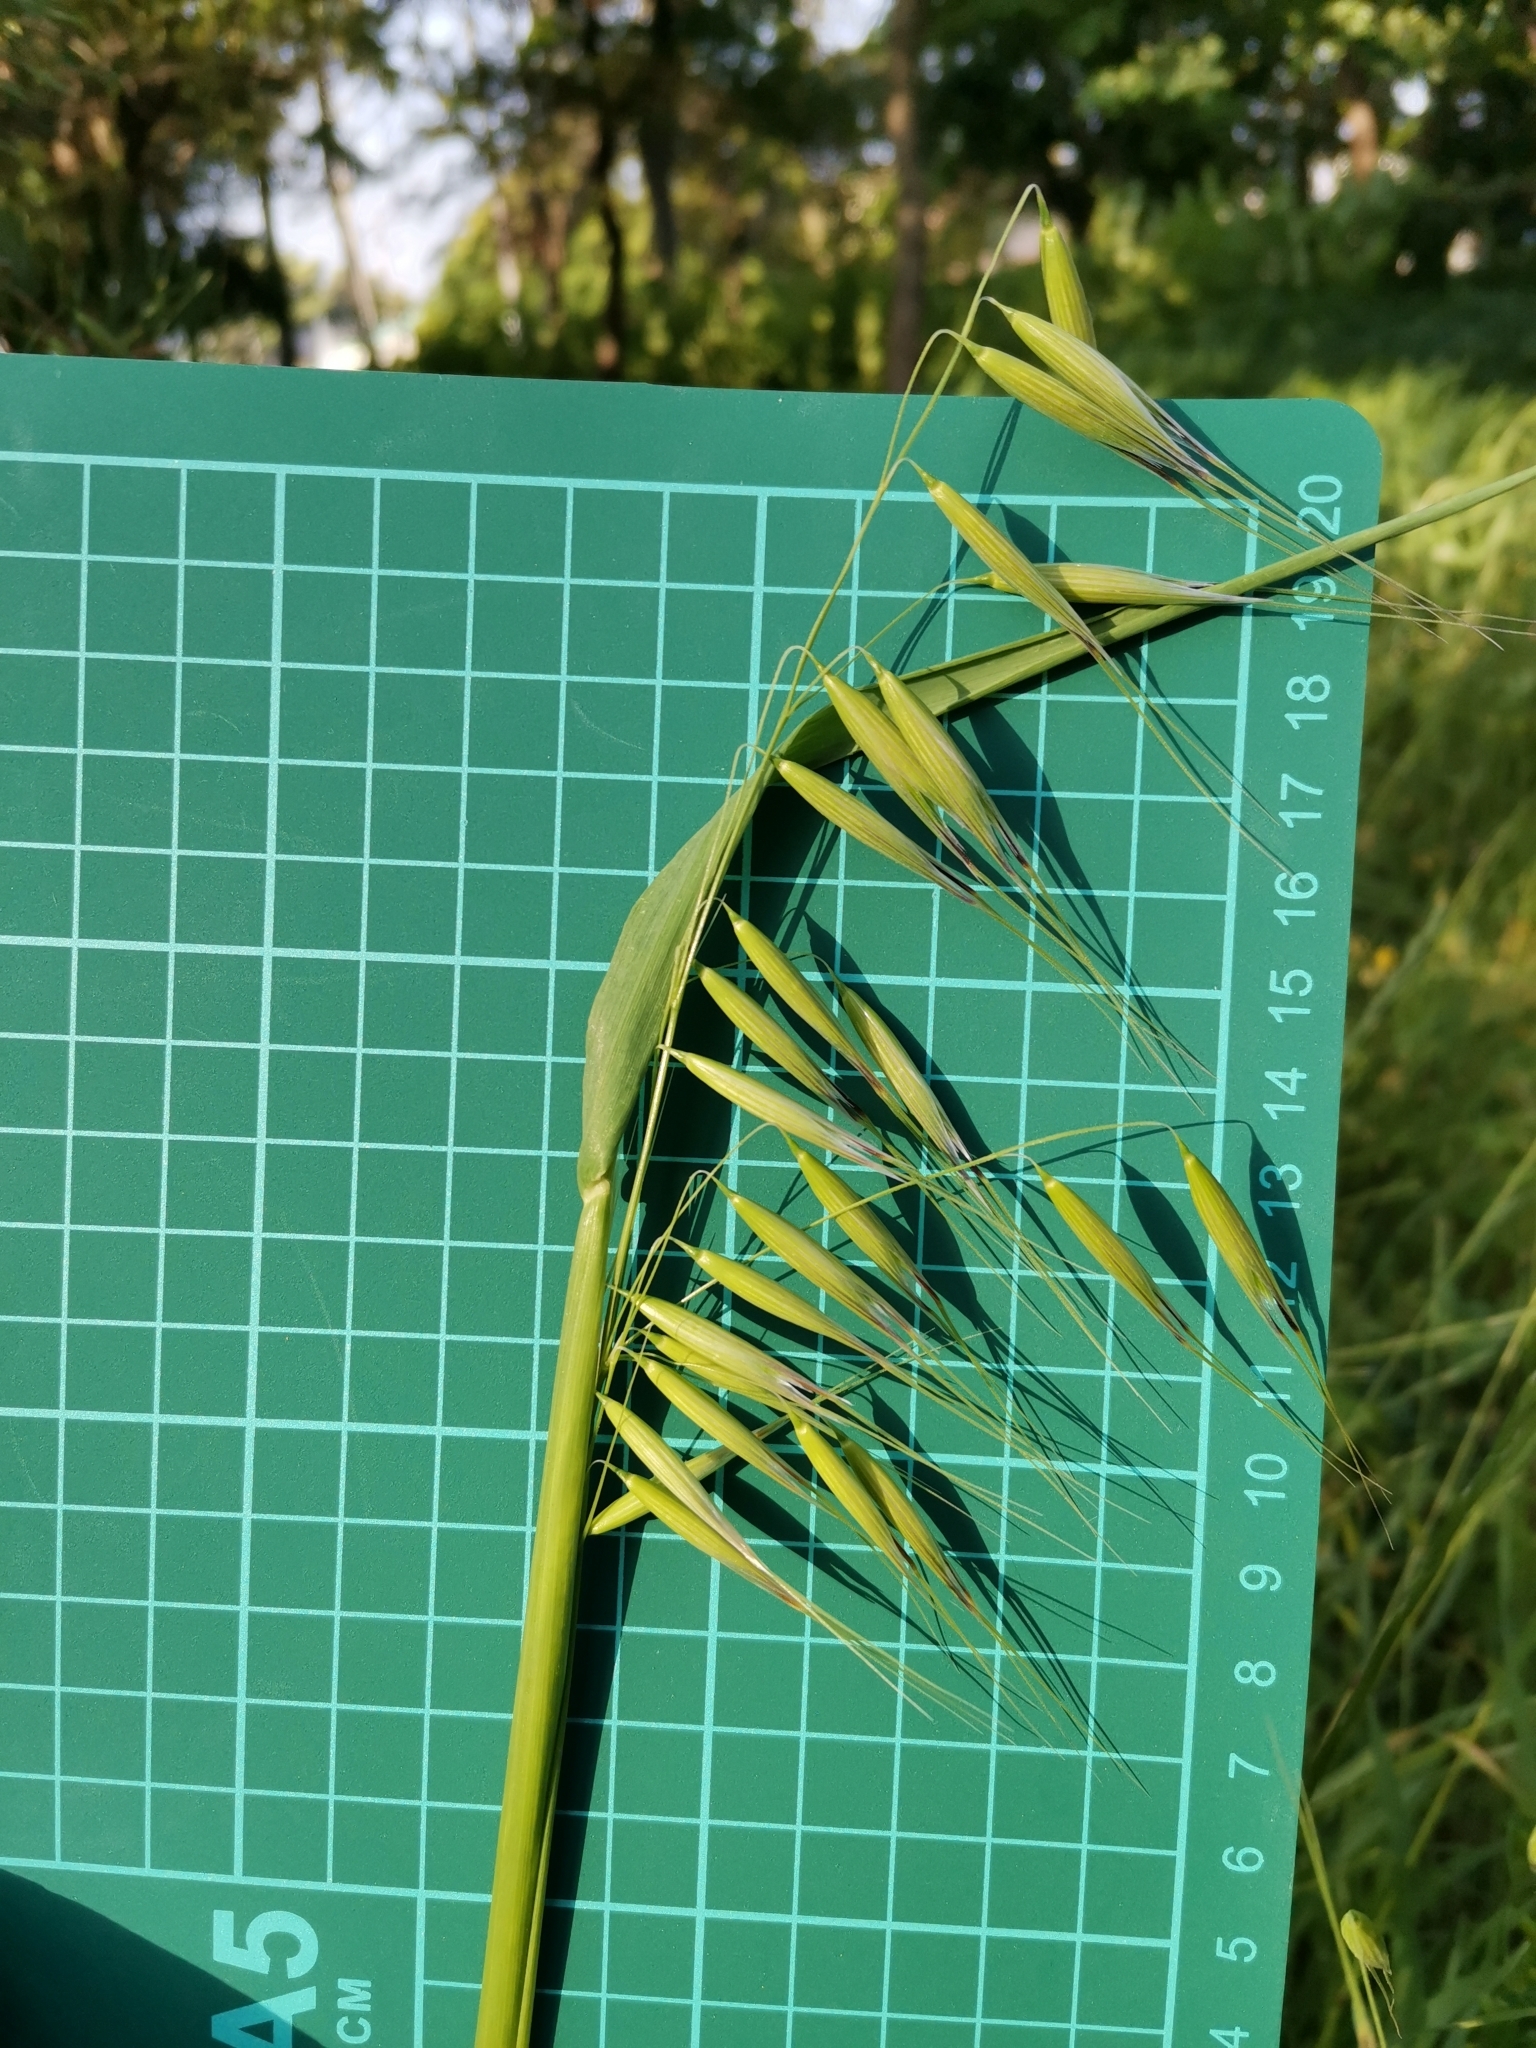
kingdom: Plantae
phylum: Tracheophyta
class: Liliopsida
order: Poales
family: Poaceae
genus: Avena
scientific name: Avena fatua
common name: Wild oat
